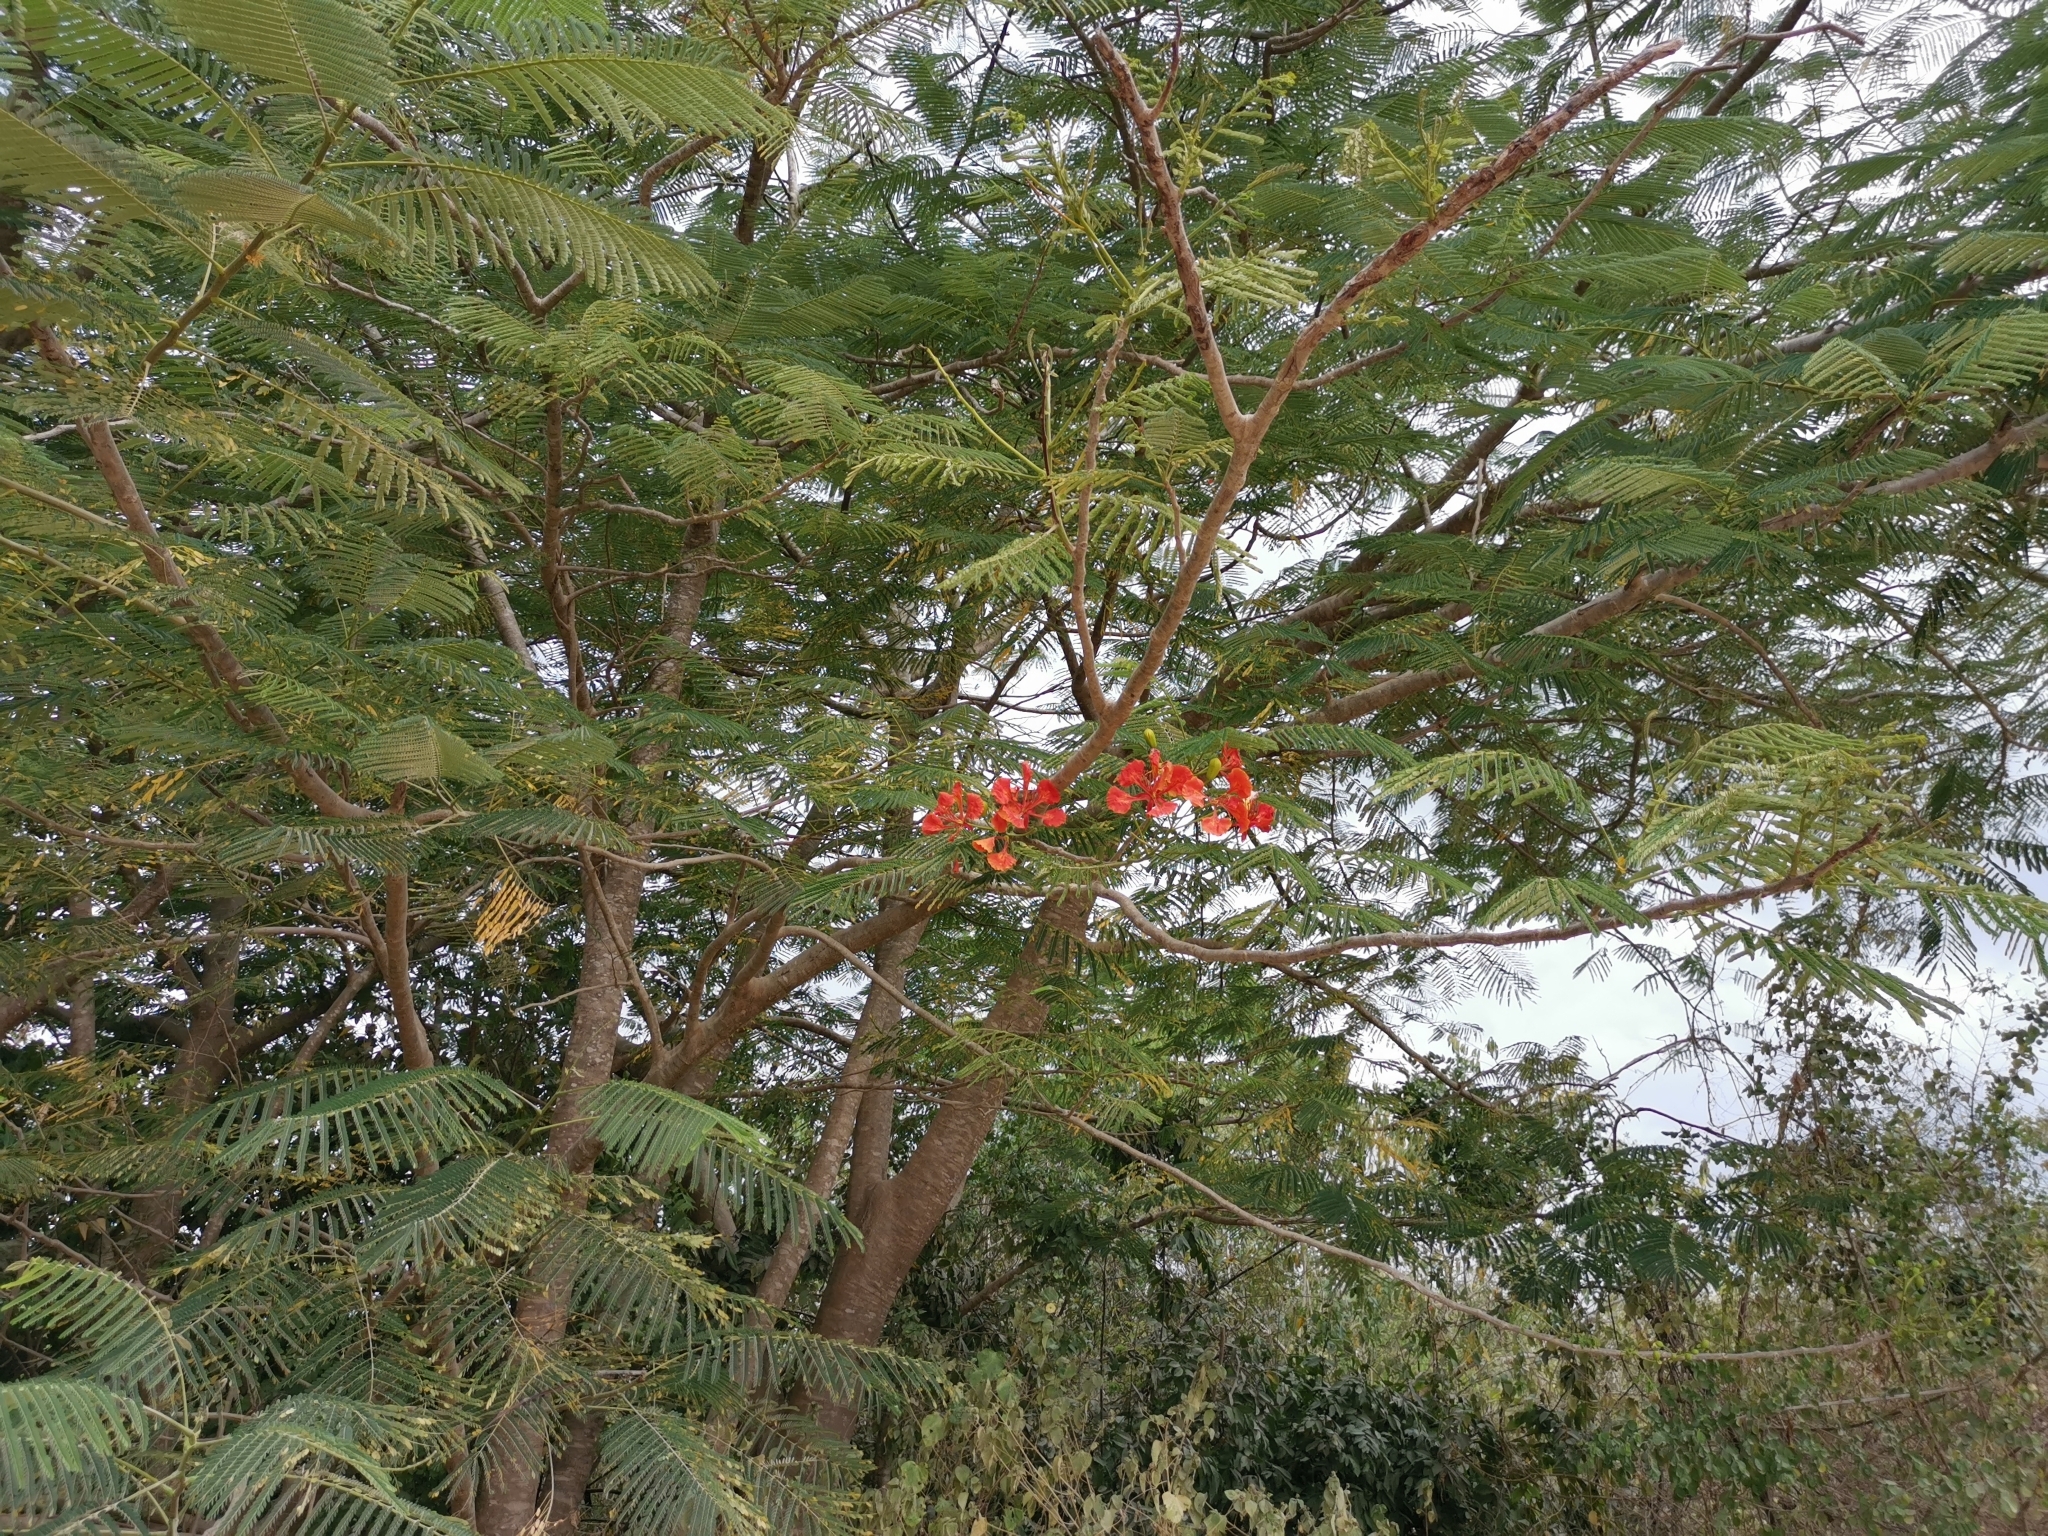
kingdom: Plantae
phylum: Tracheophyta
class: Magnoliopsida
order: Fabales
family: Fabaceae
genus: Delonix
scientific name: Delonix regia
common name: Royal poinciana
